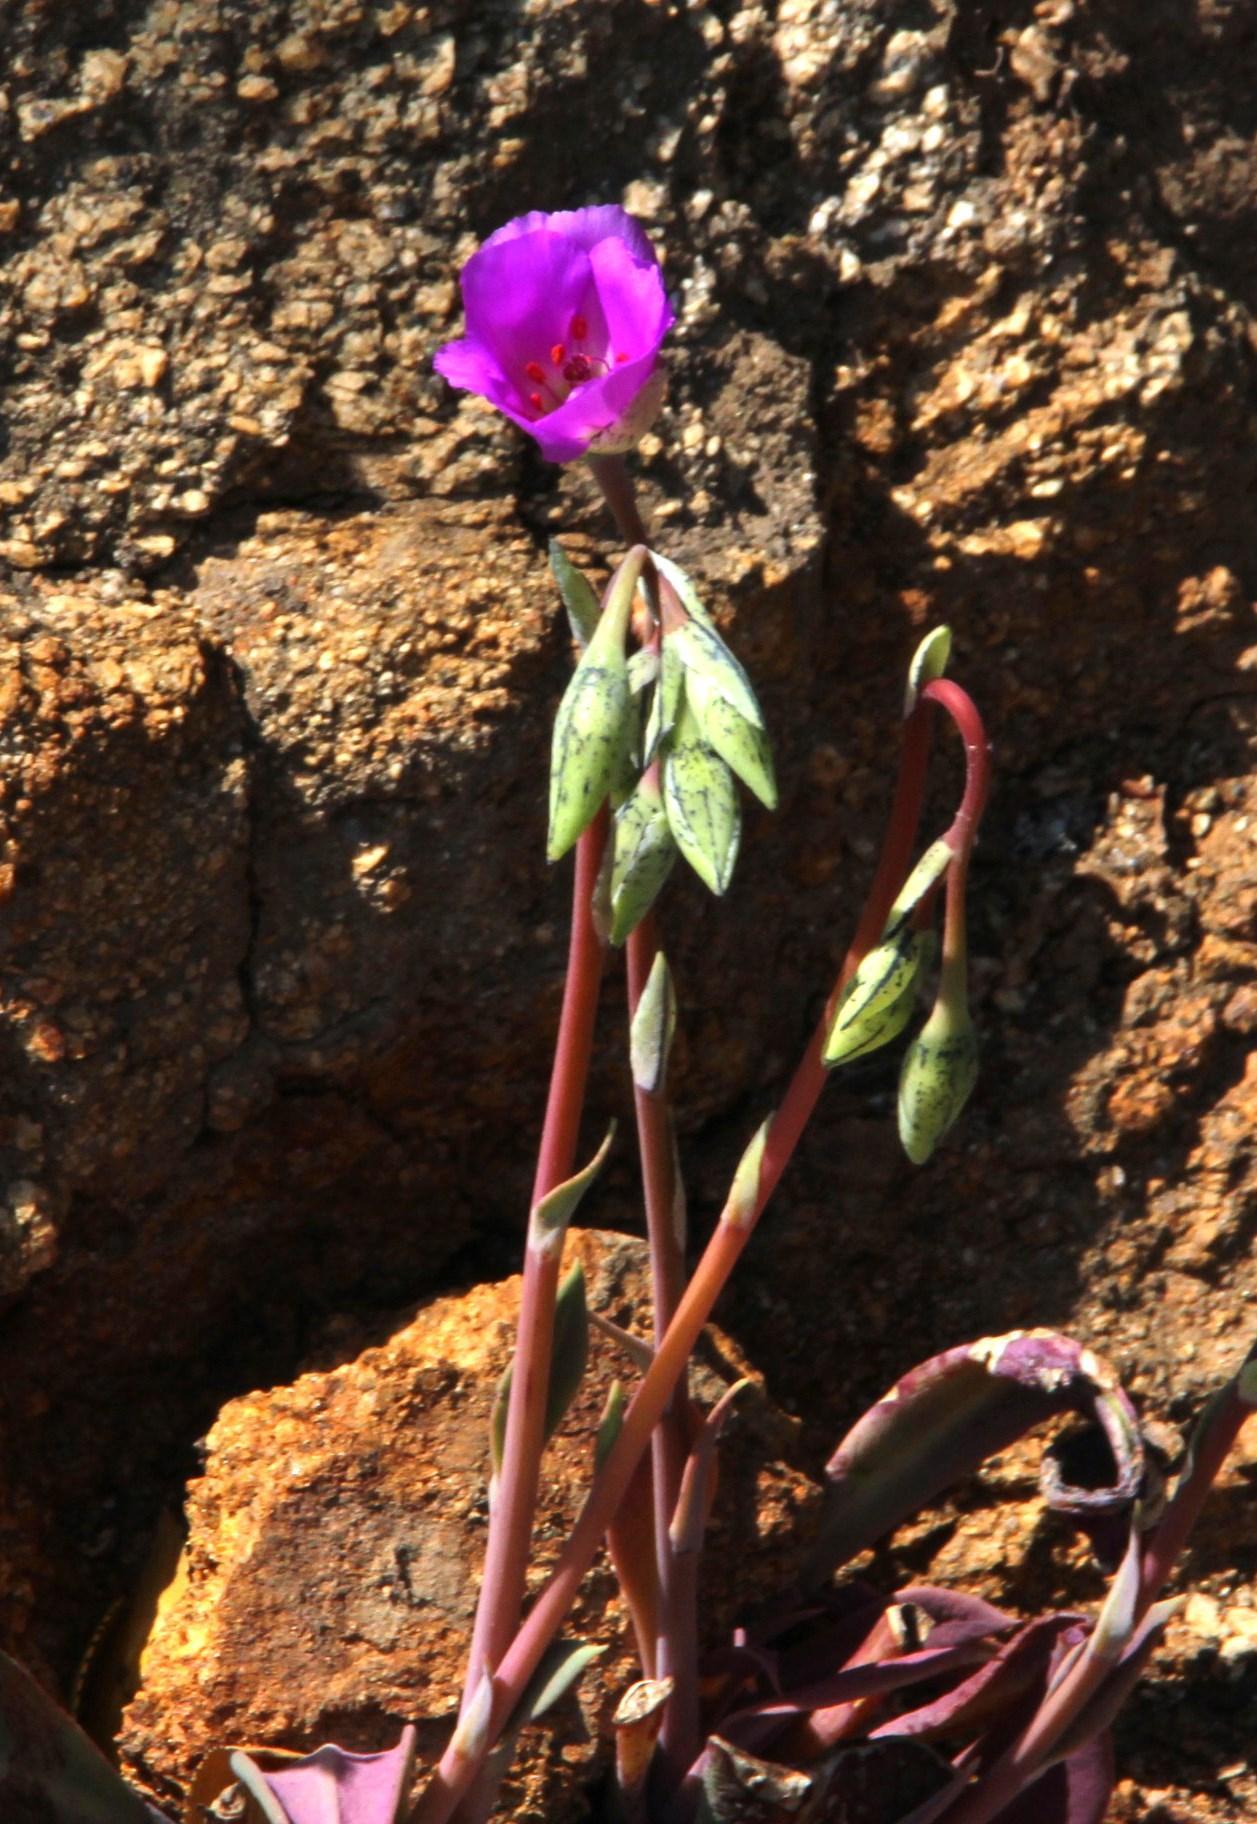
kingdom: Plantae
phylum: Tracheophyta
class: Magnoliopsida
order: Caryophyllales
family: Montiaceae
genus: Cistanthe
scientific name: Cistanthe grandiflora
